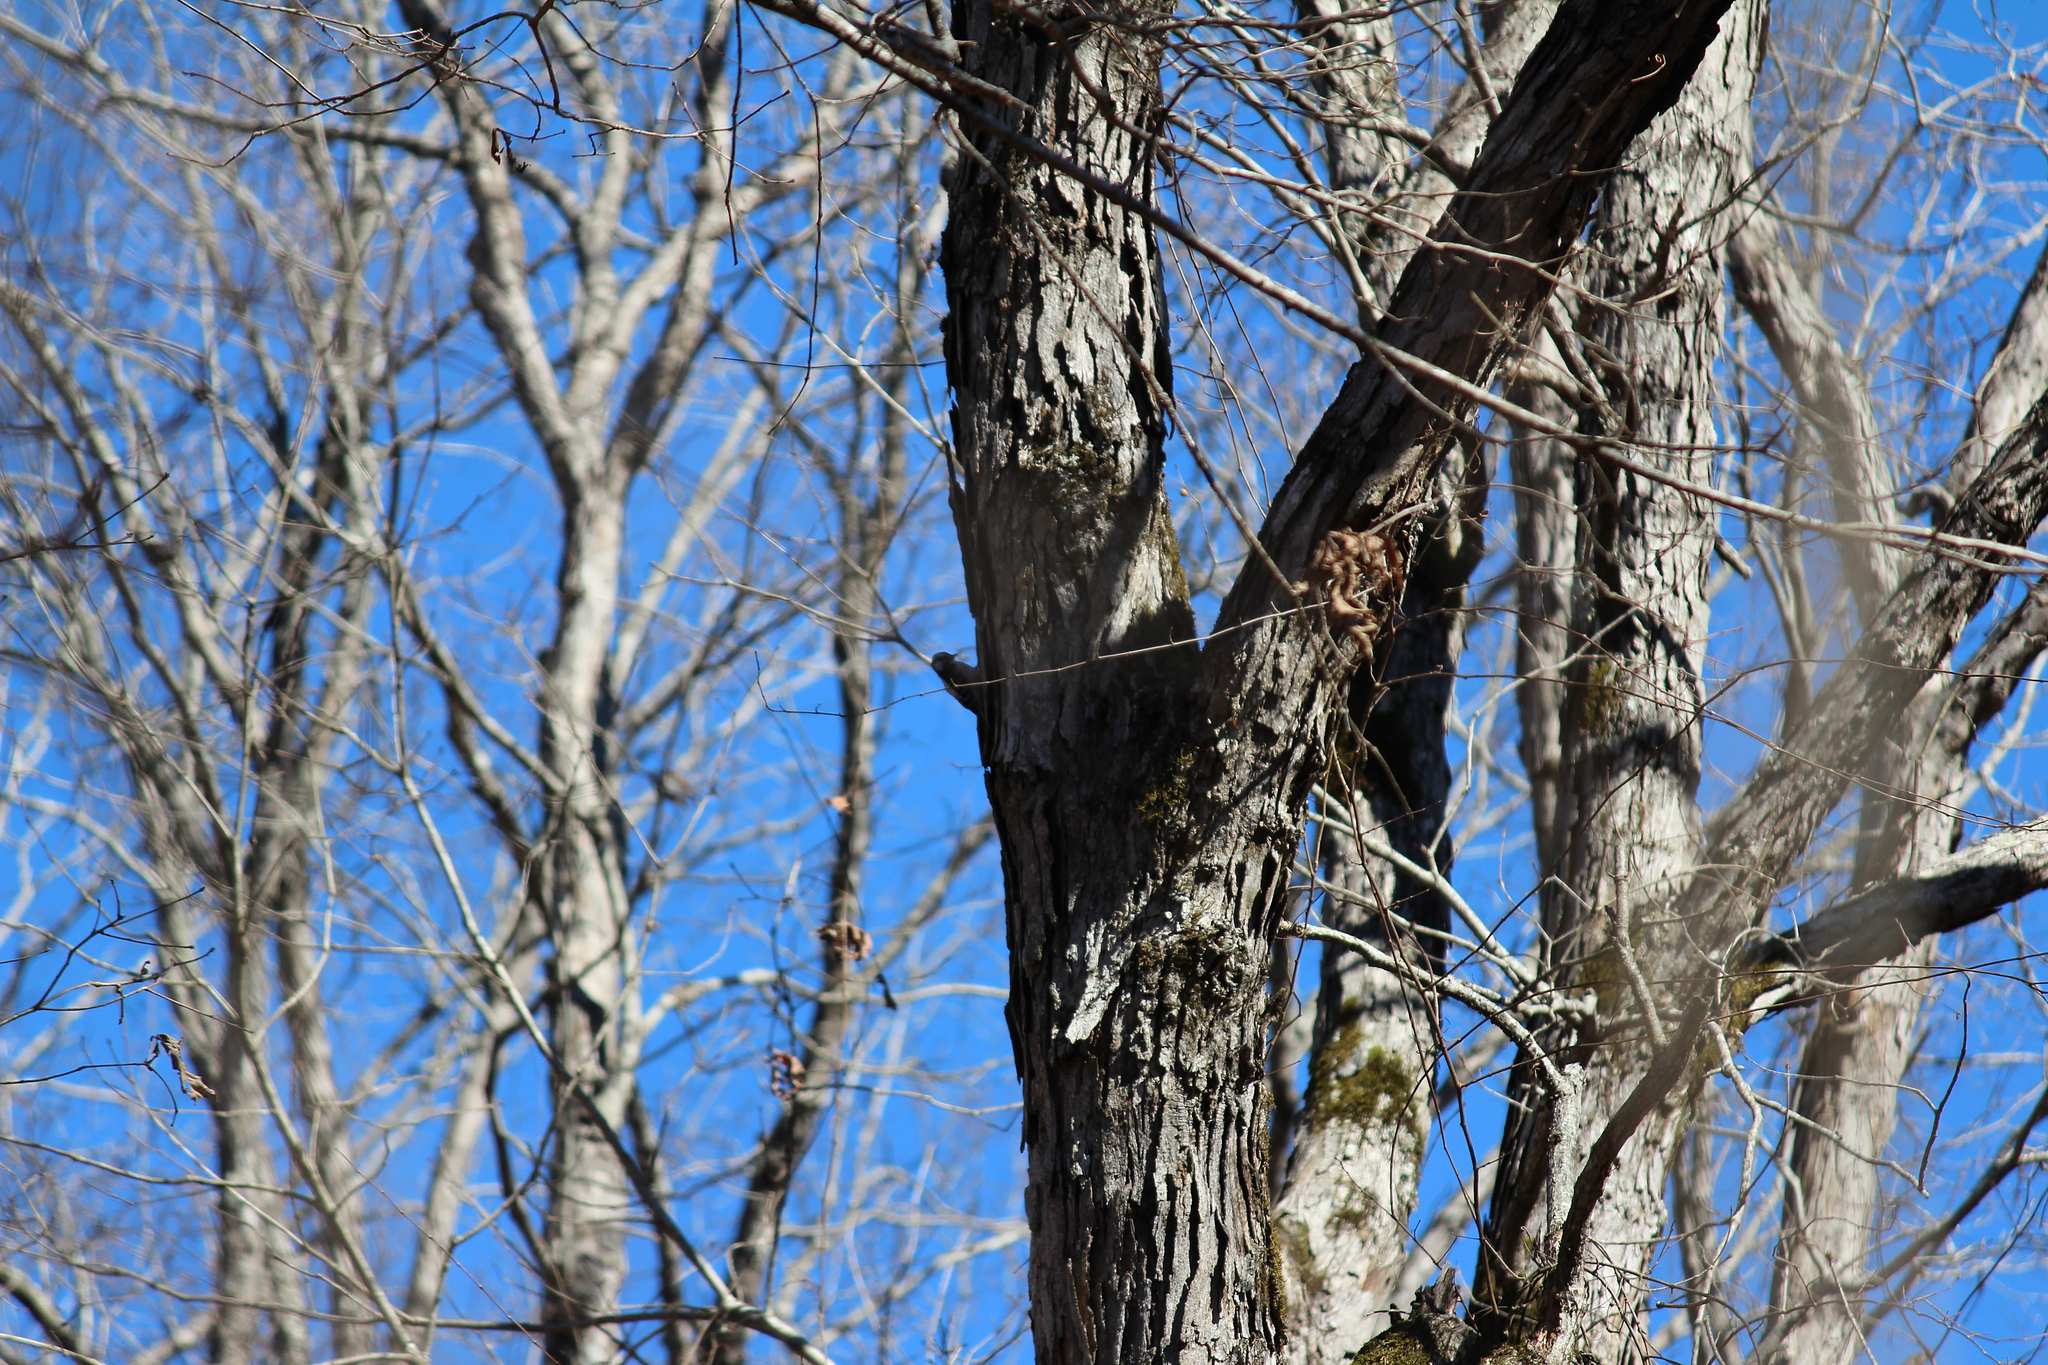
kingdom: Animalia
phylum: Chordata
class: Aves
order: Piciformes
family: Picidae
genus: Dryobates
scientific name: Dryobates pubescens
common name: Downy woodpecker
